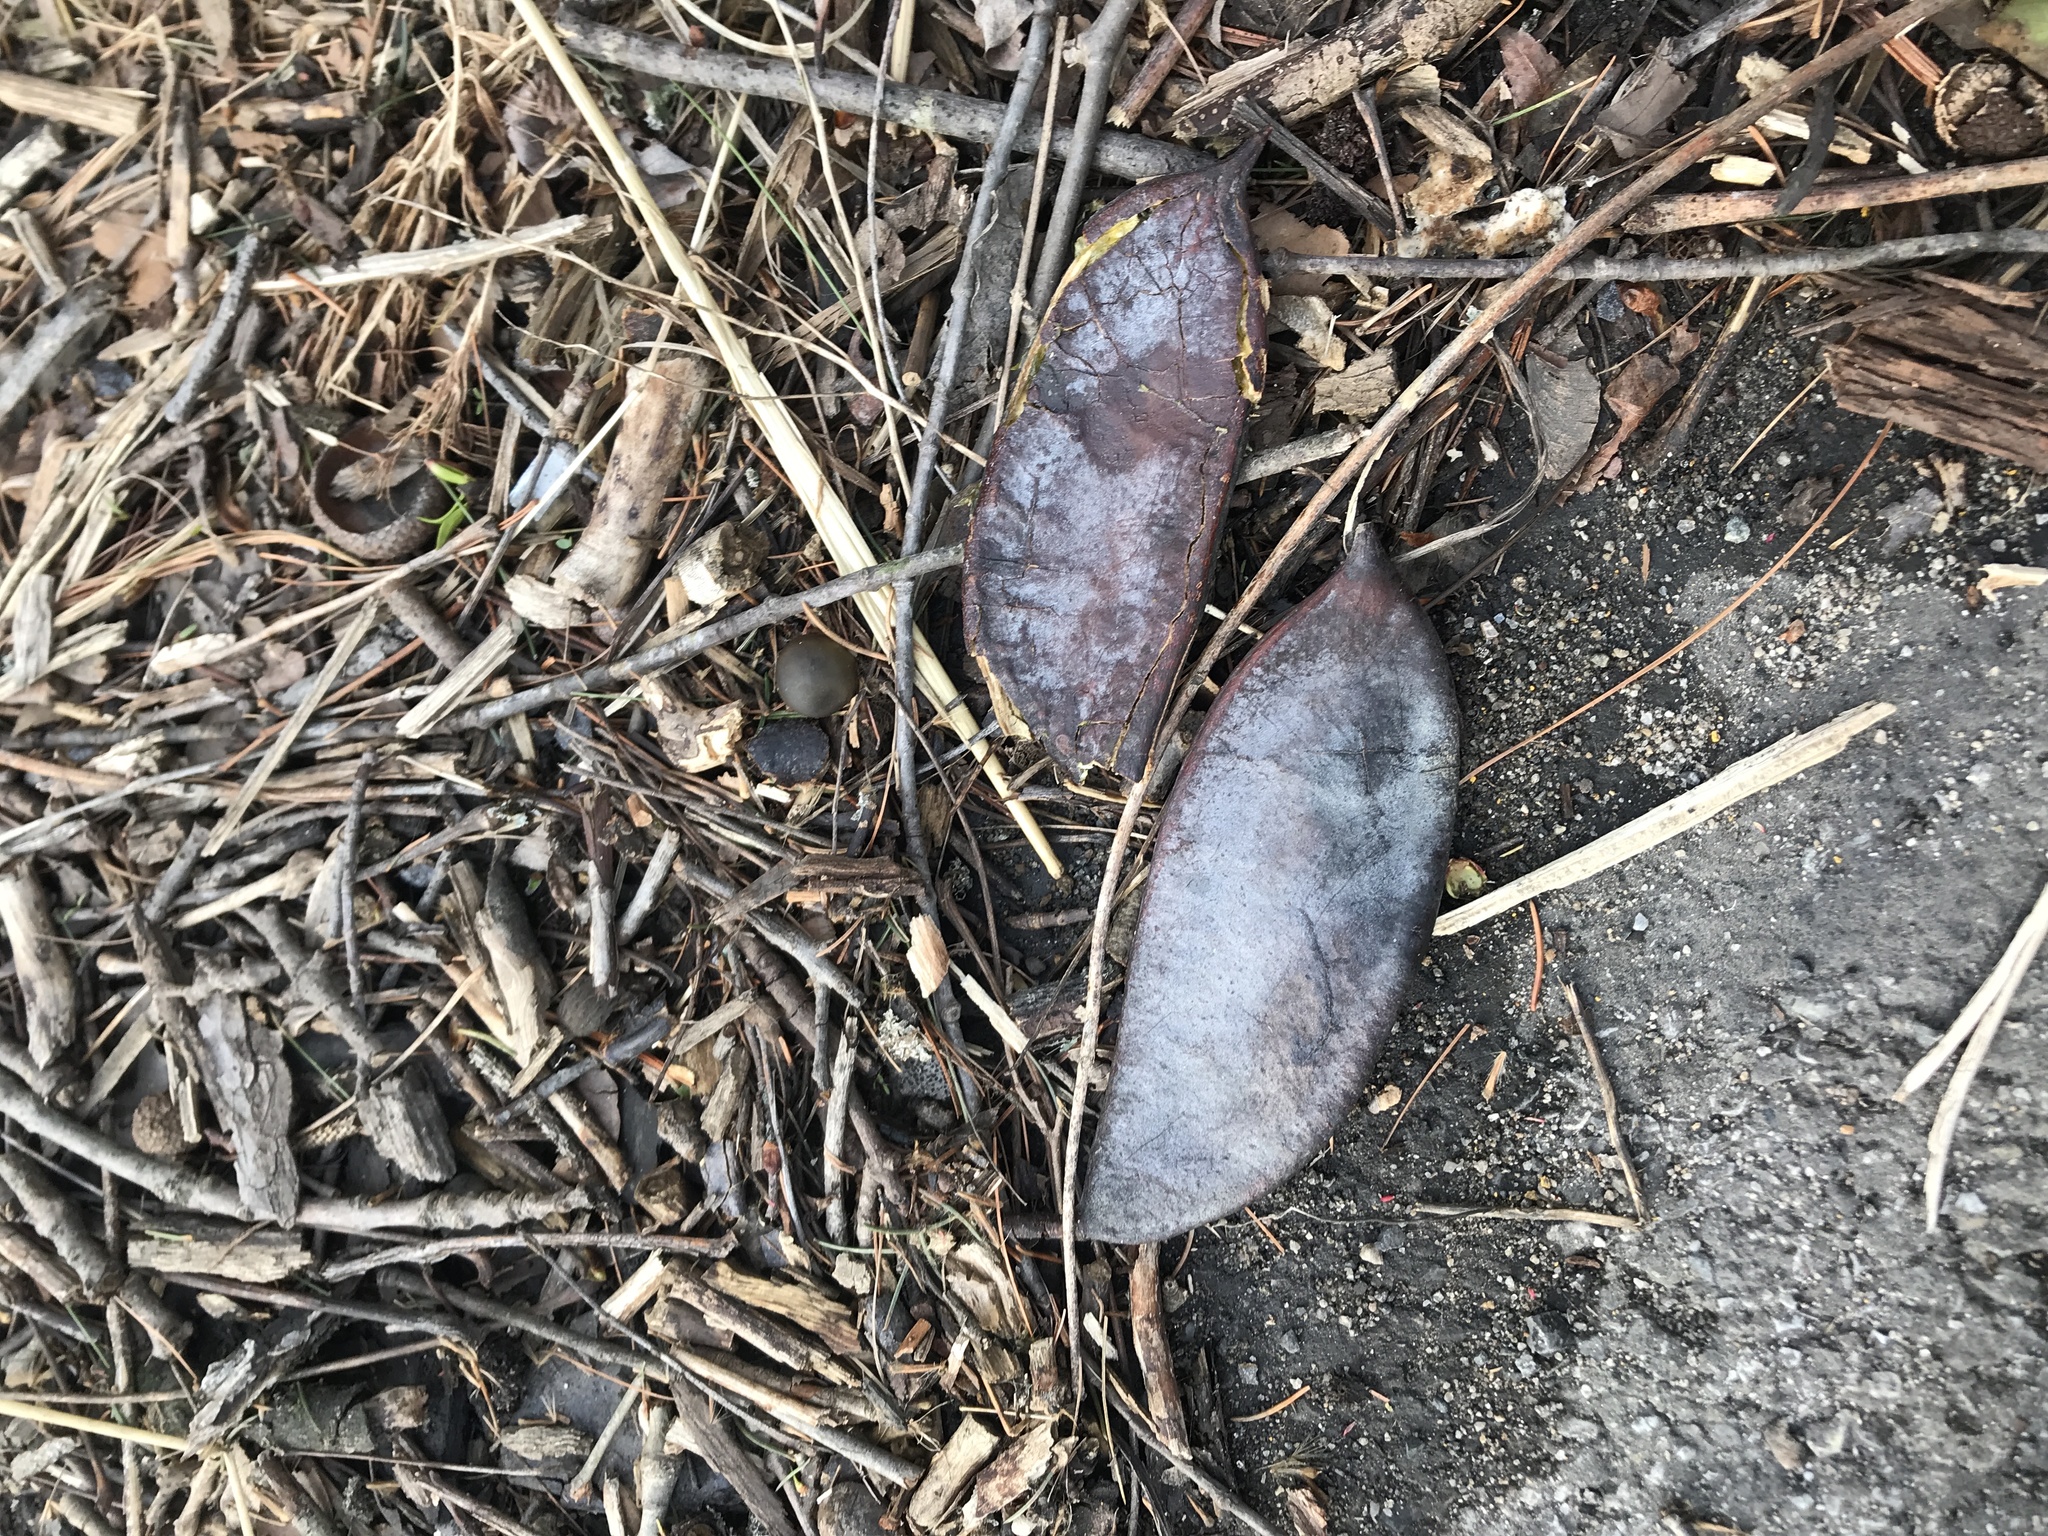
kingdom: Plantae
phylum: Tracheophyta
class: Magnoliopsida
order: Fabales
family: Fabaceae
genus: Gymnocladus
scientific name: Gymnocladus dioicus
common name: Kentucky coffee-tree
